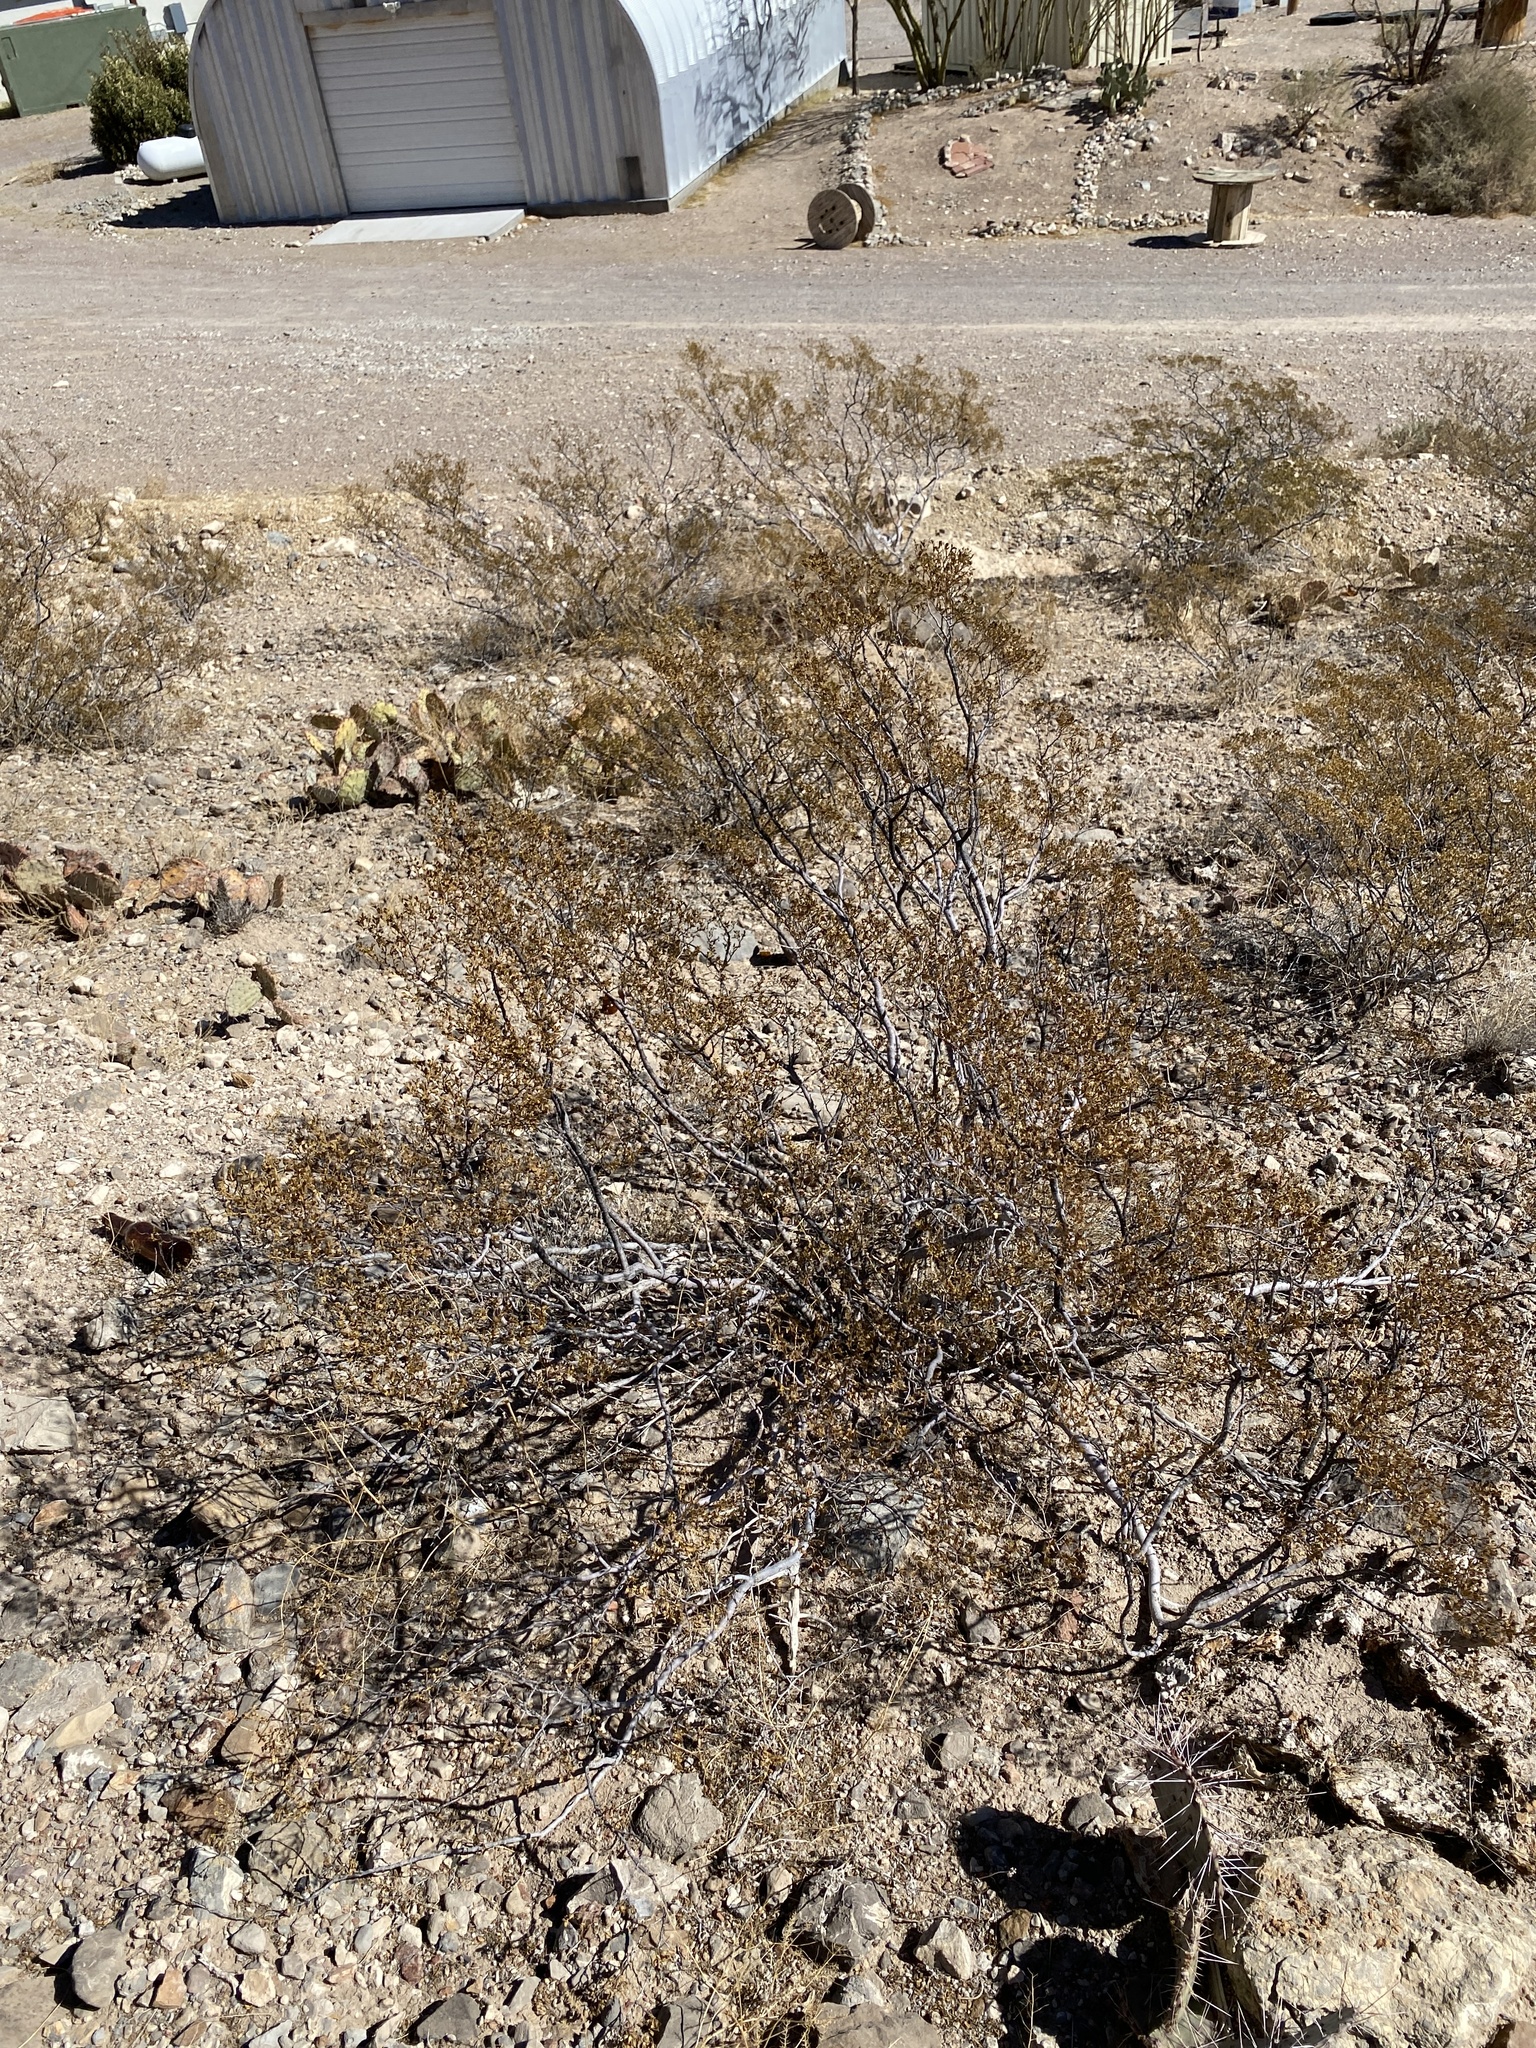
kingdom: Plantae
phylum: Tracheophyta
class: Magnoliopsida
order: Zygophyllales
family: Zygophyllaceae
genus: Larrea
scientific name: Larrea tridentata
